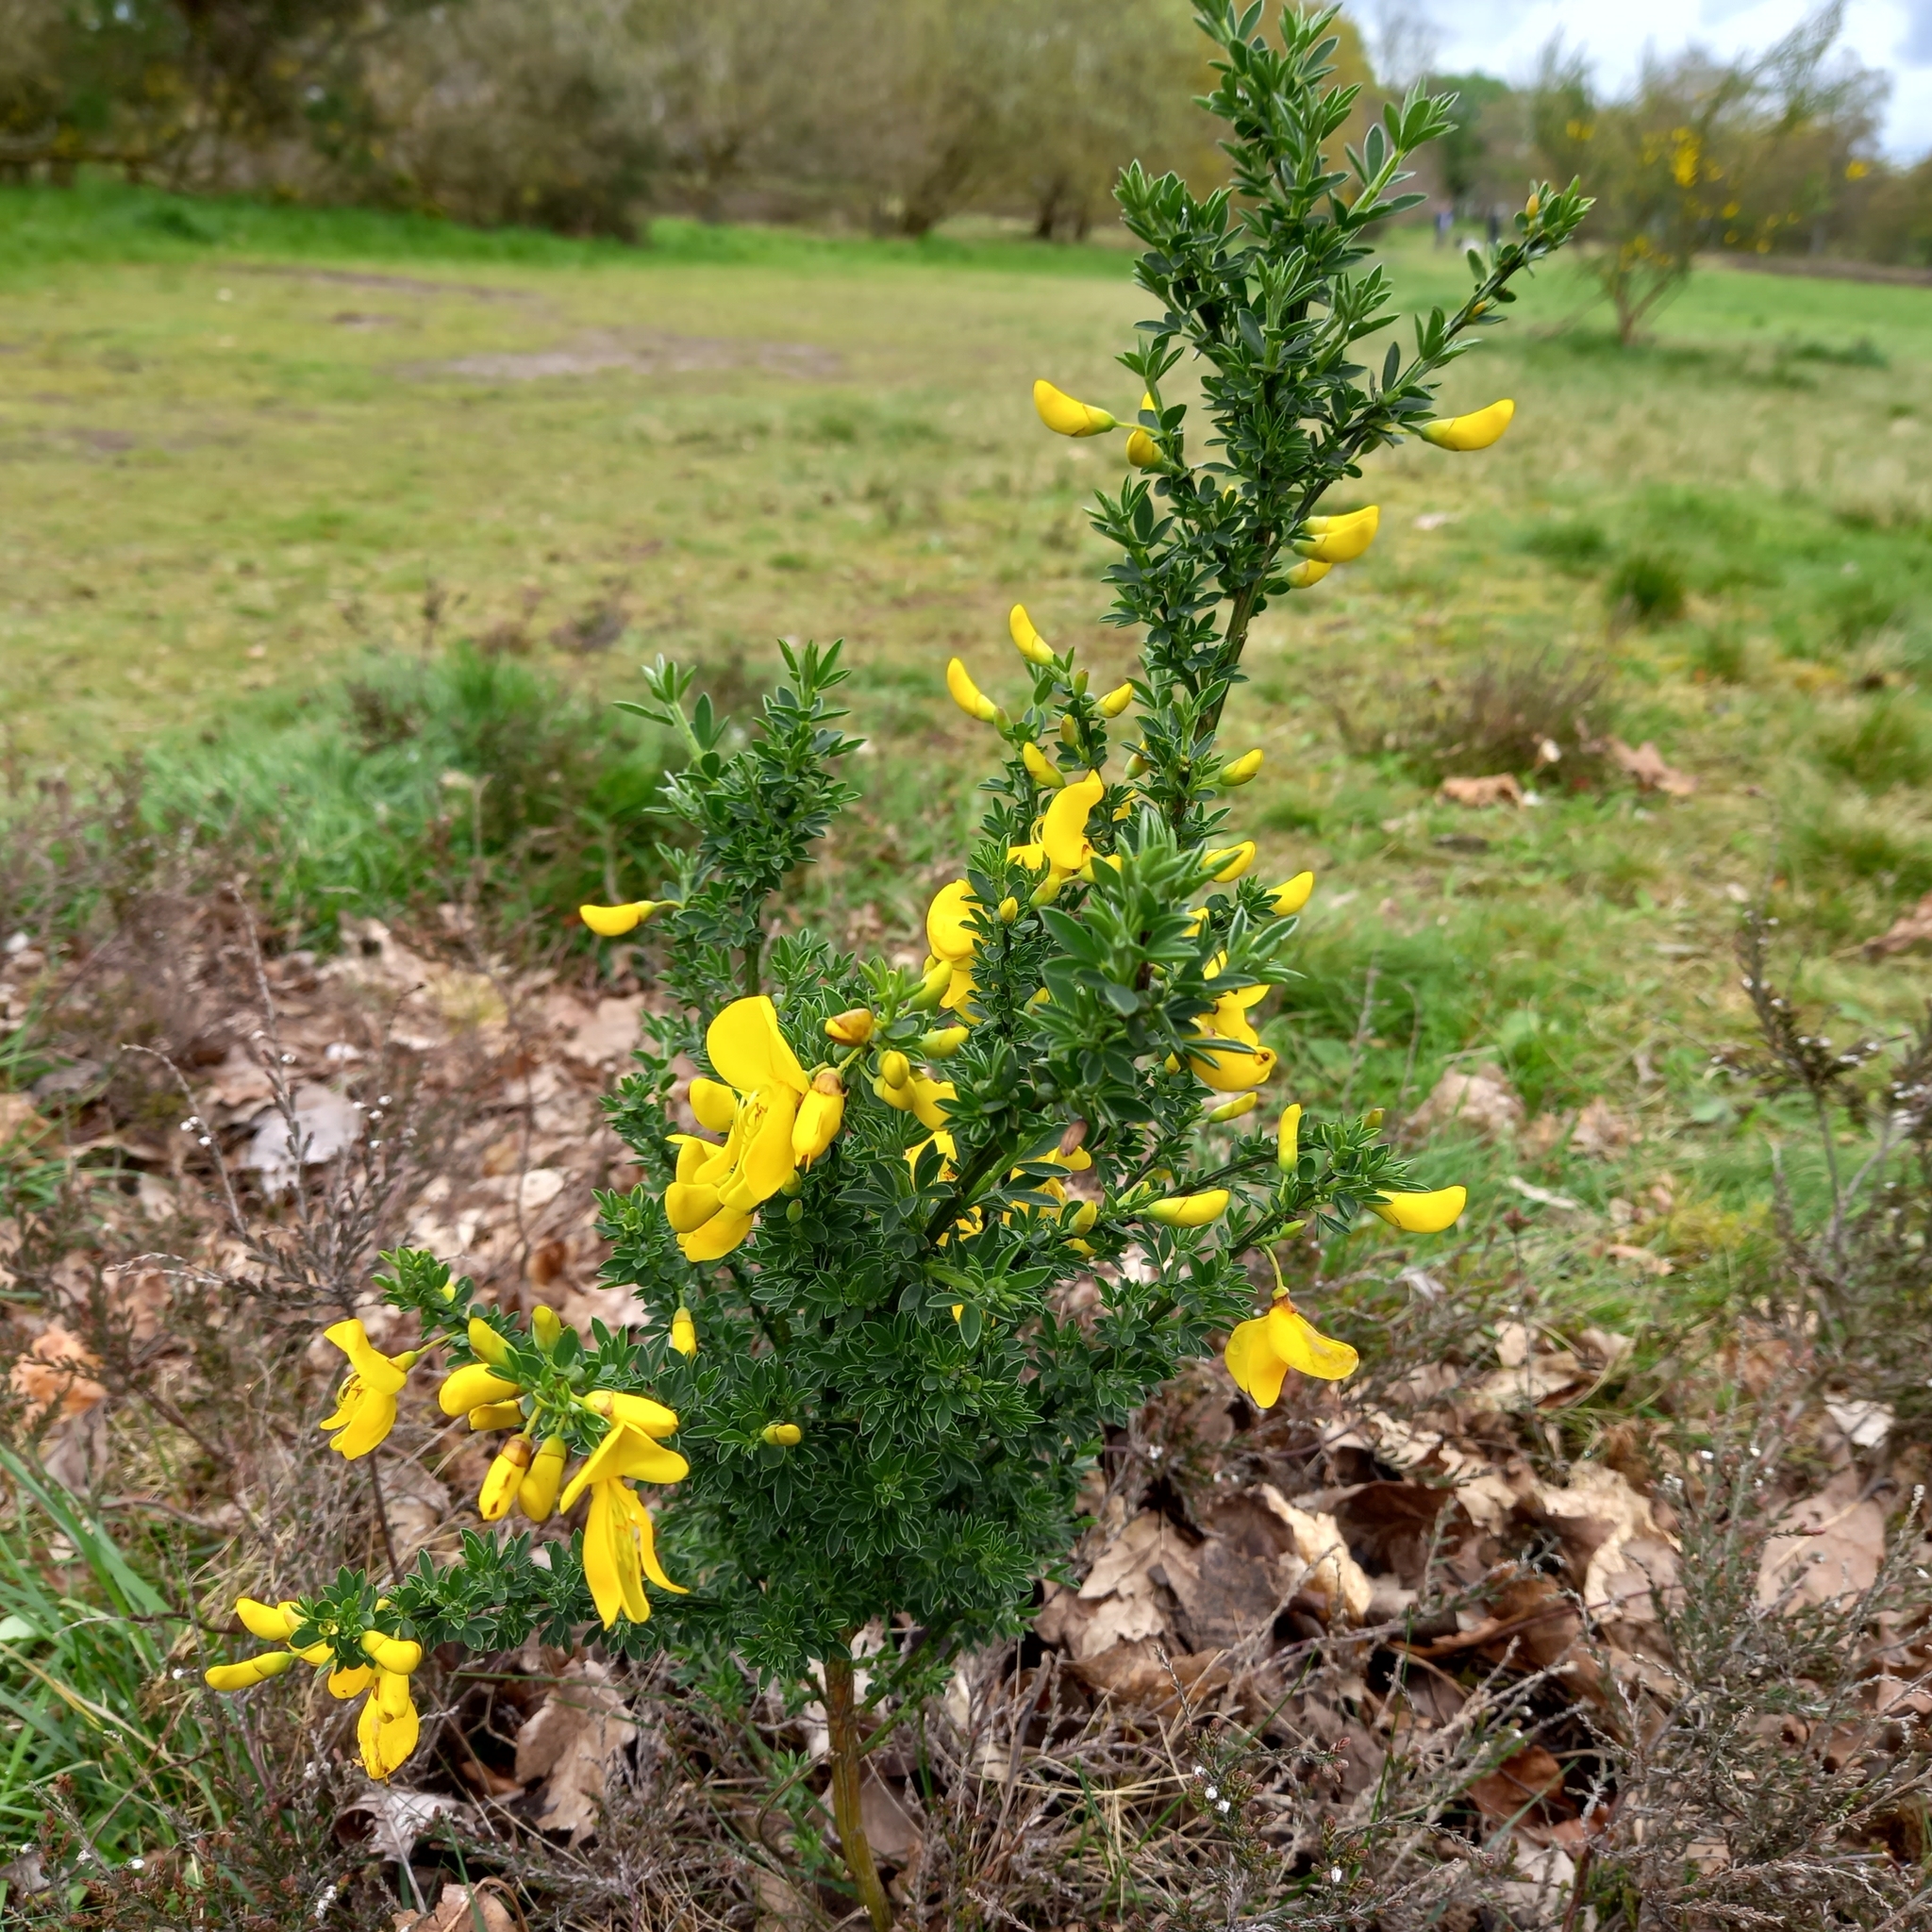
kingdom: Plantae
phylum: Tracheophyta
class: Magnoliopsida
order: Fabales
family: Fabaceae
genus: Cytisus
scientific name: Cytisus scoparius
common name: Scotch broom
